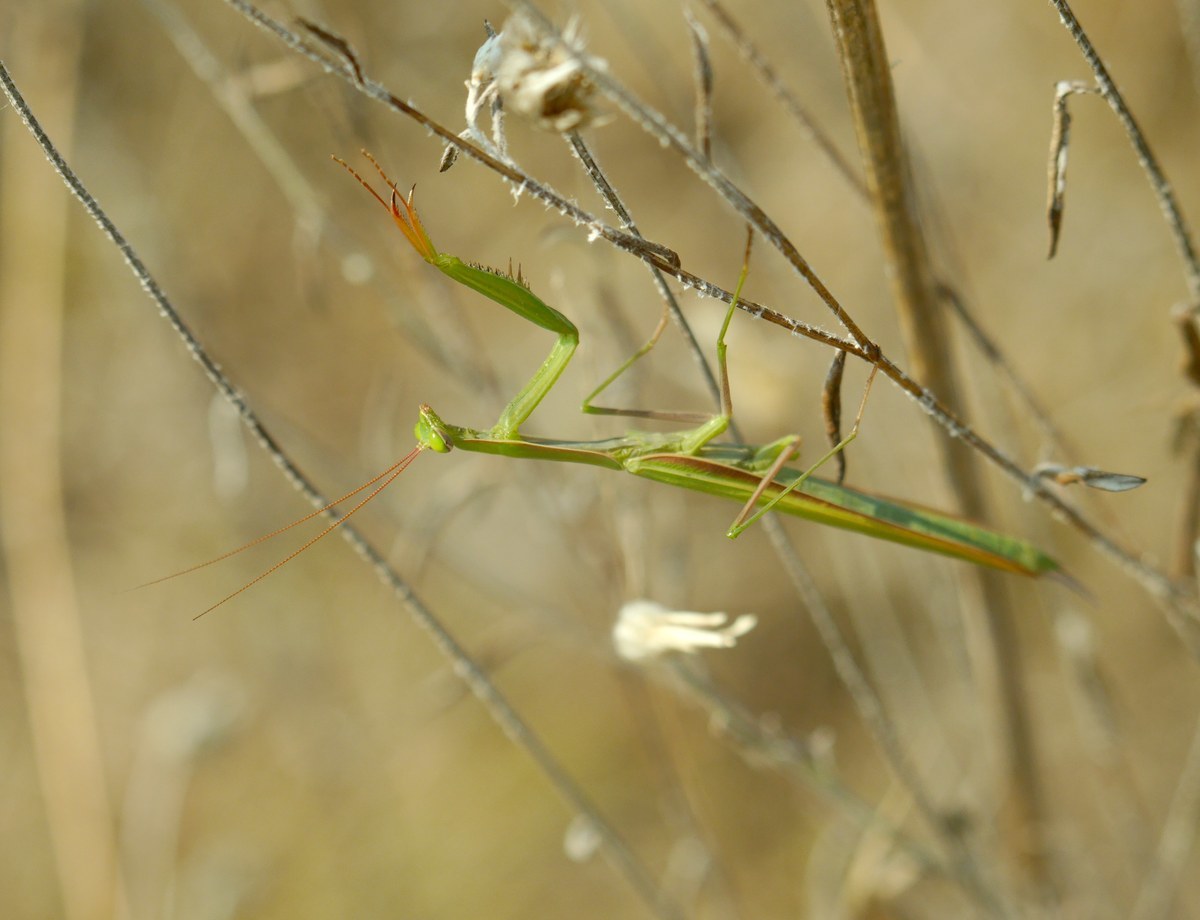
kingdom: Animalia
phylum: Arthropoda
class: Insecta
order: Mantodea
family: Mantidae
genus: Mantis
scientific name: Mantis religiosa
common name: Praying mantis
